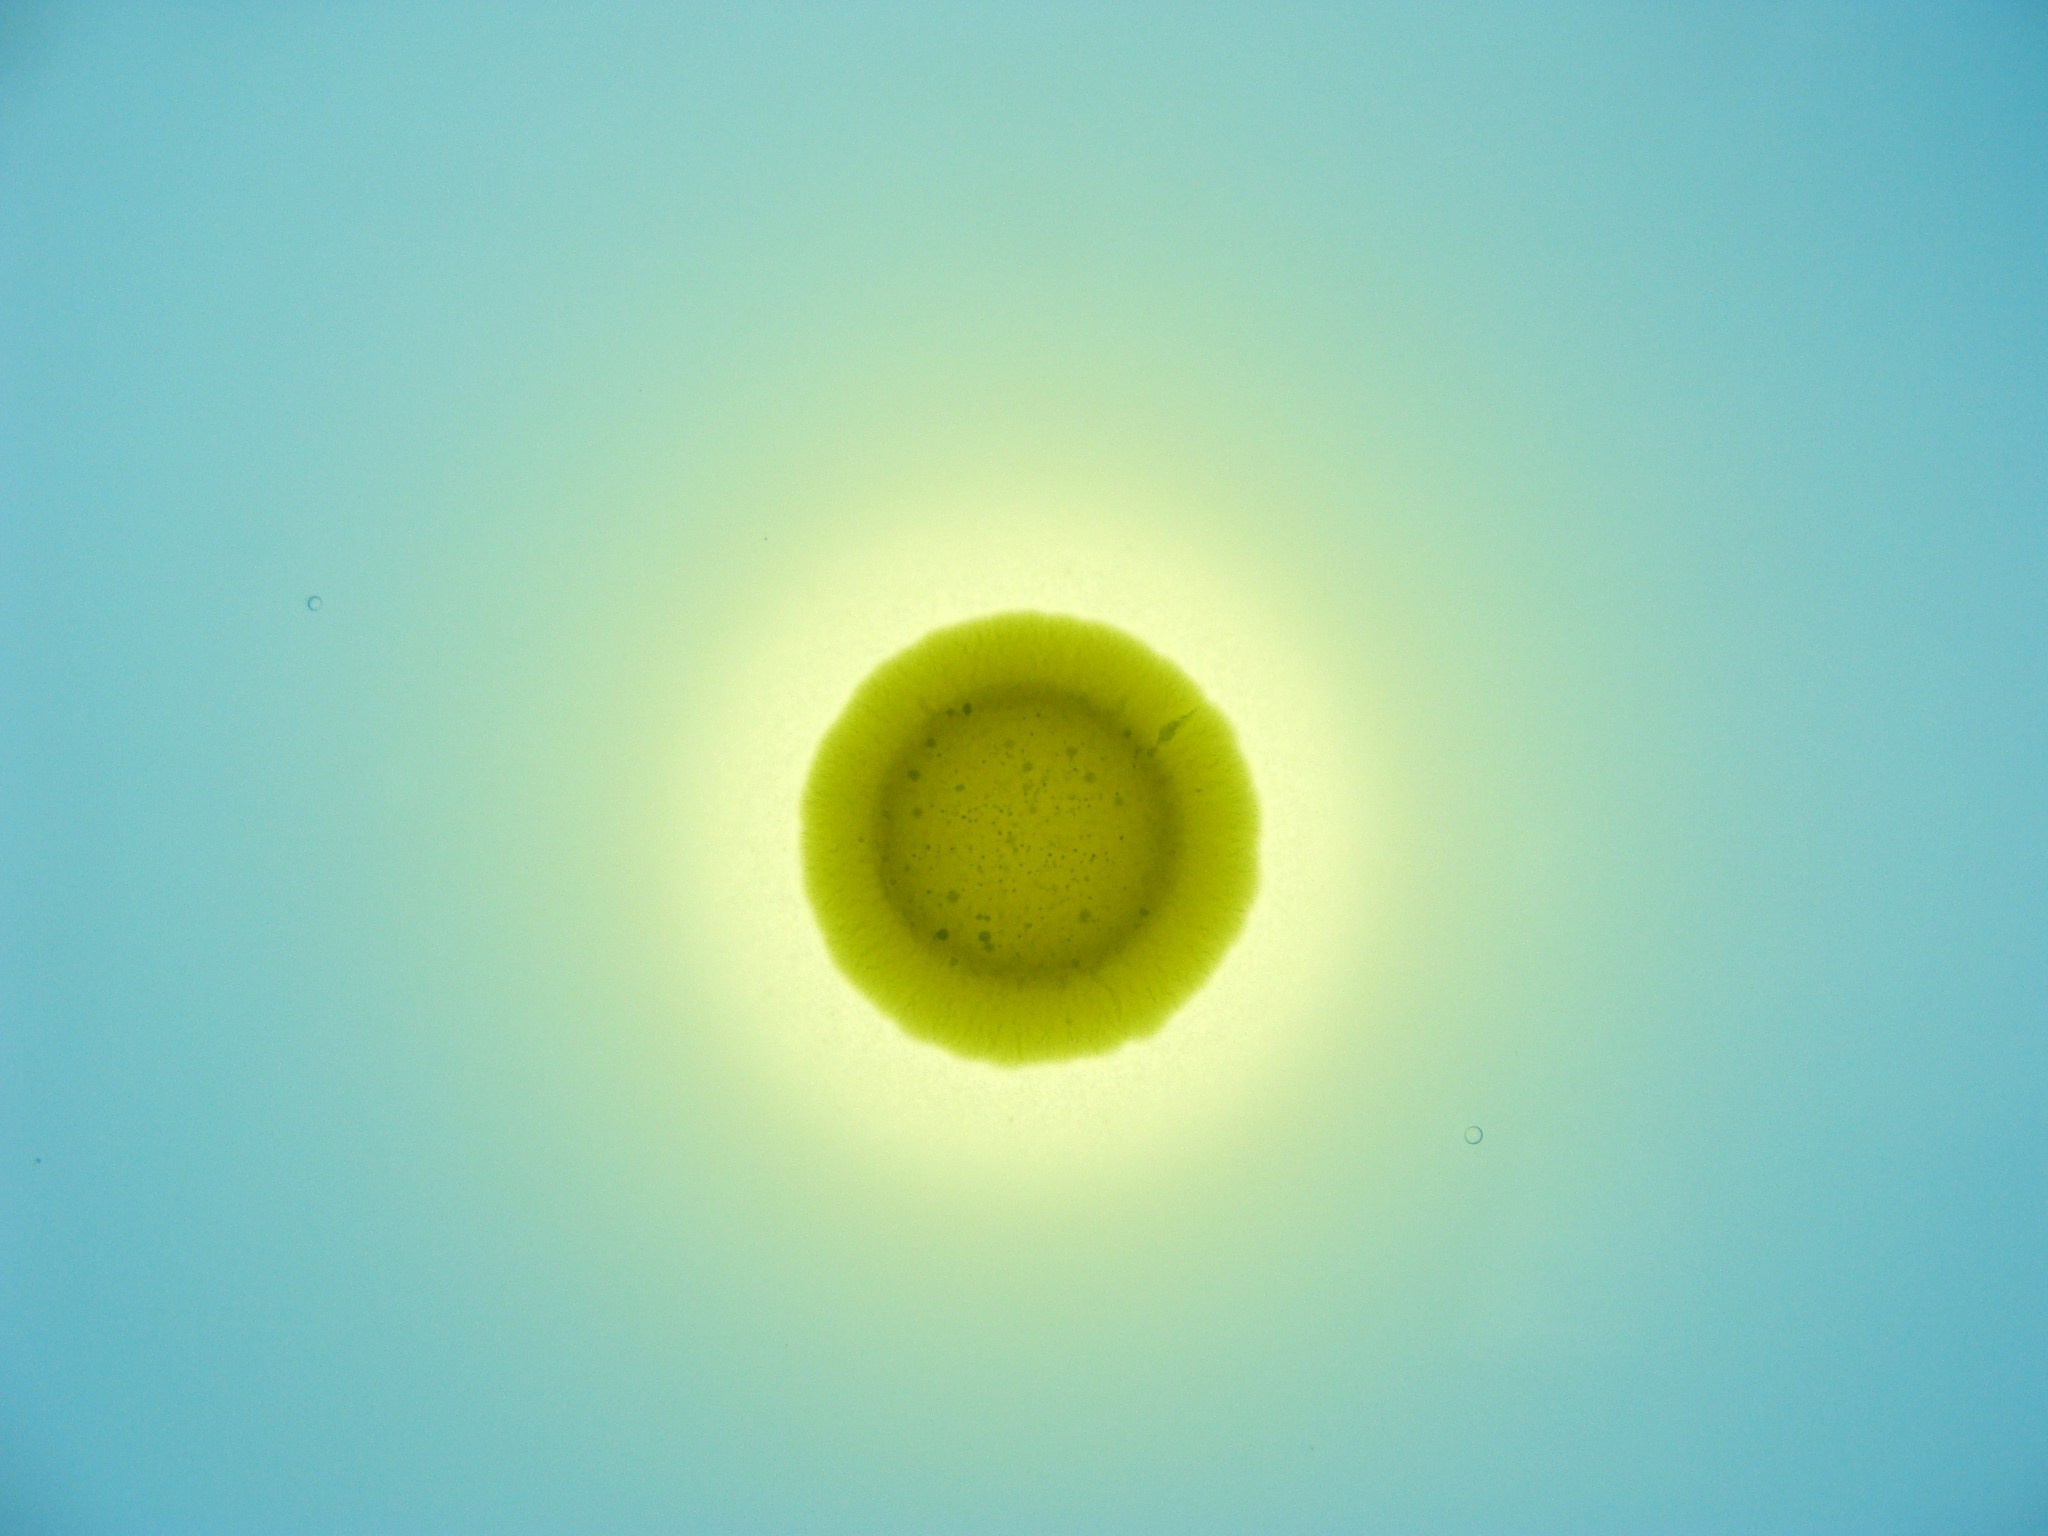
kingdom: Bacteria
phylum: Proteobacteria
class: Gammaproteobacteria
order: Enterobacterales
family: Aeromonadaceae
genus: Aeromonas
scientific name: Aeromonas caviae
